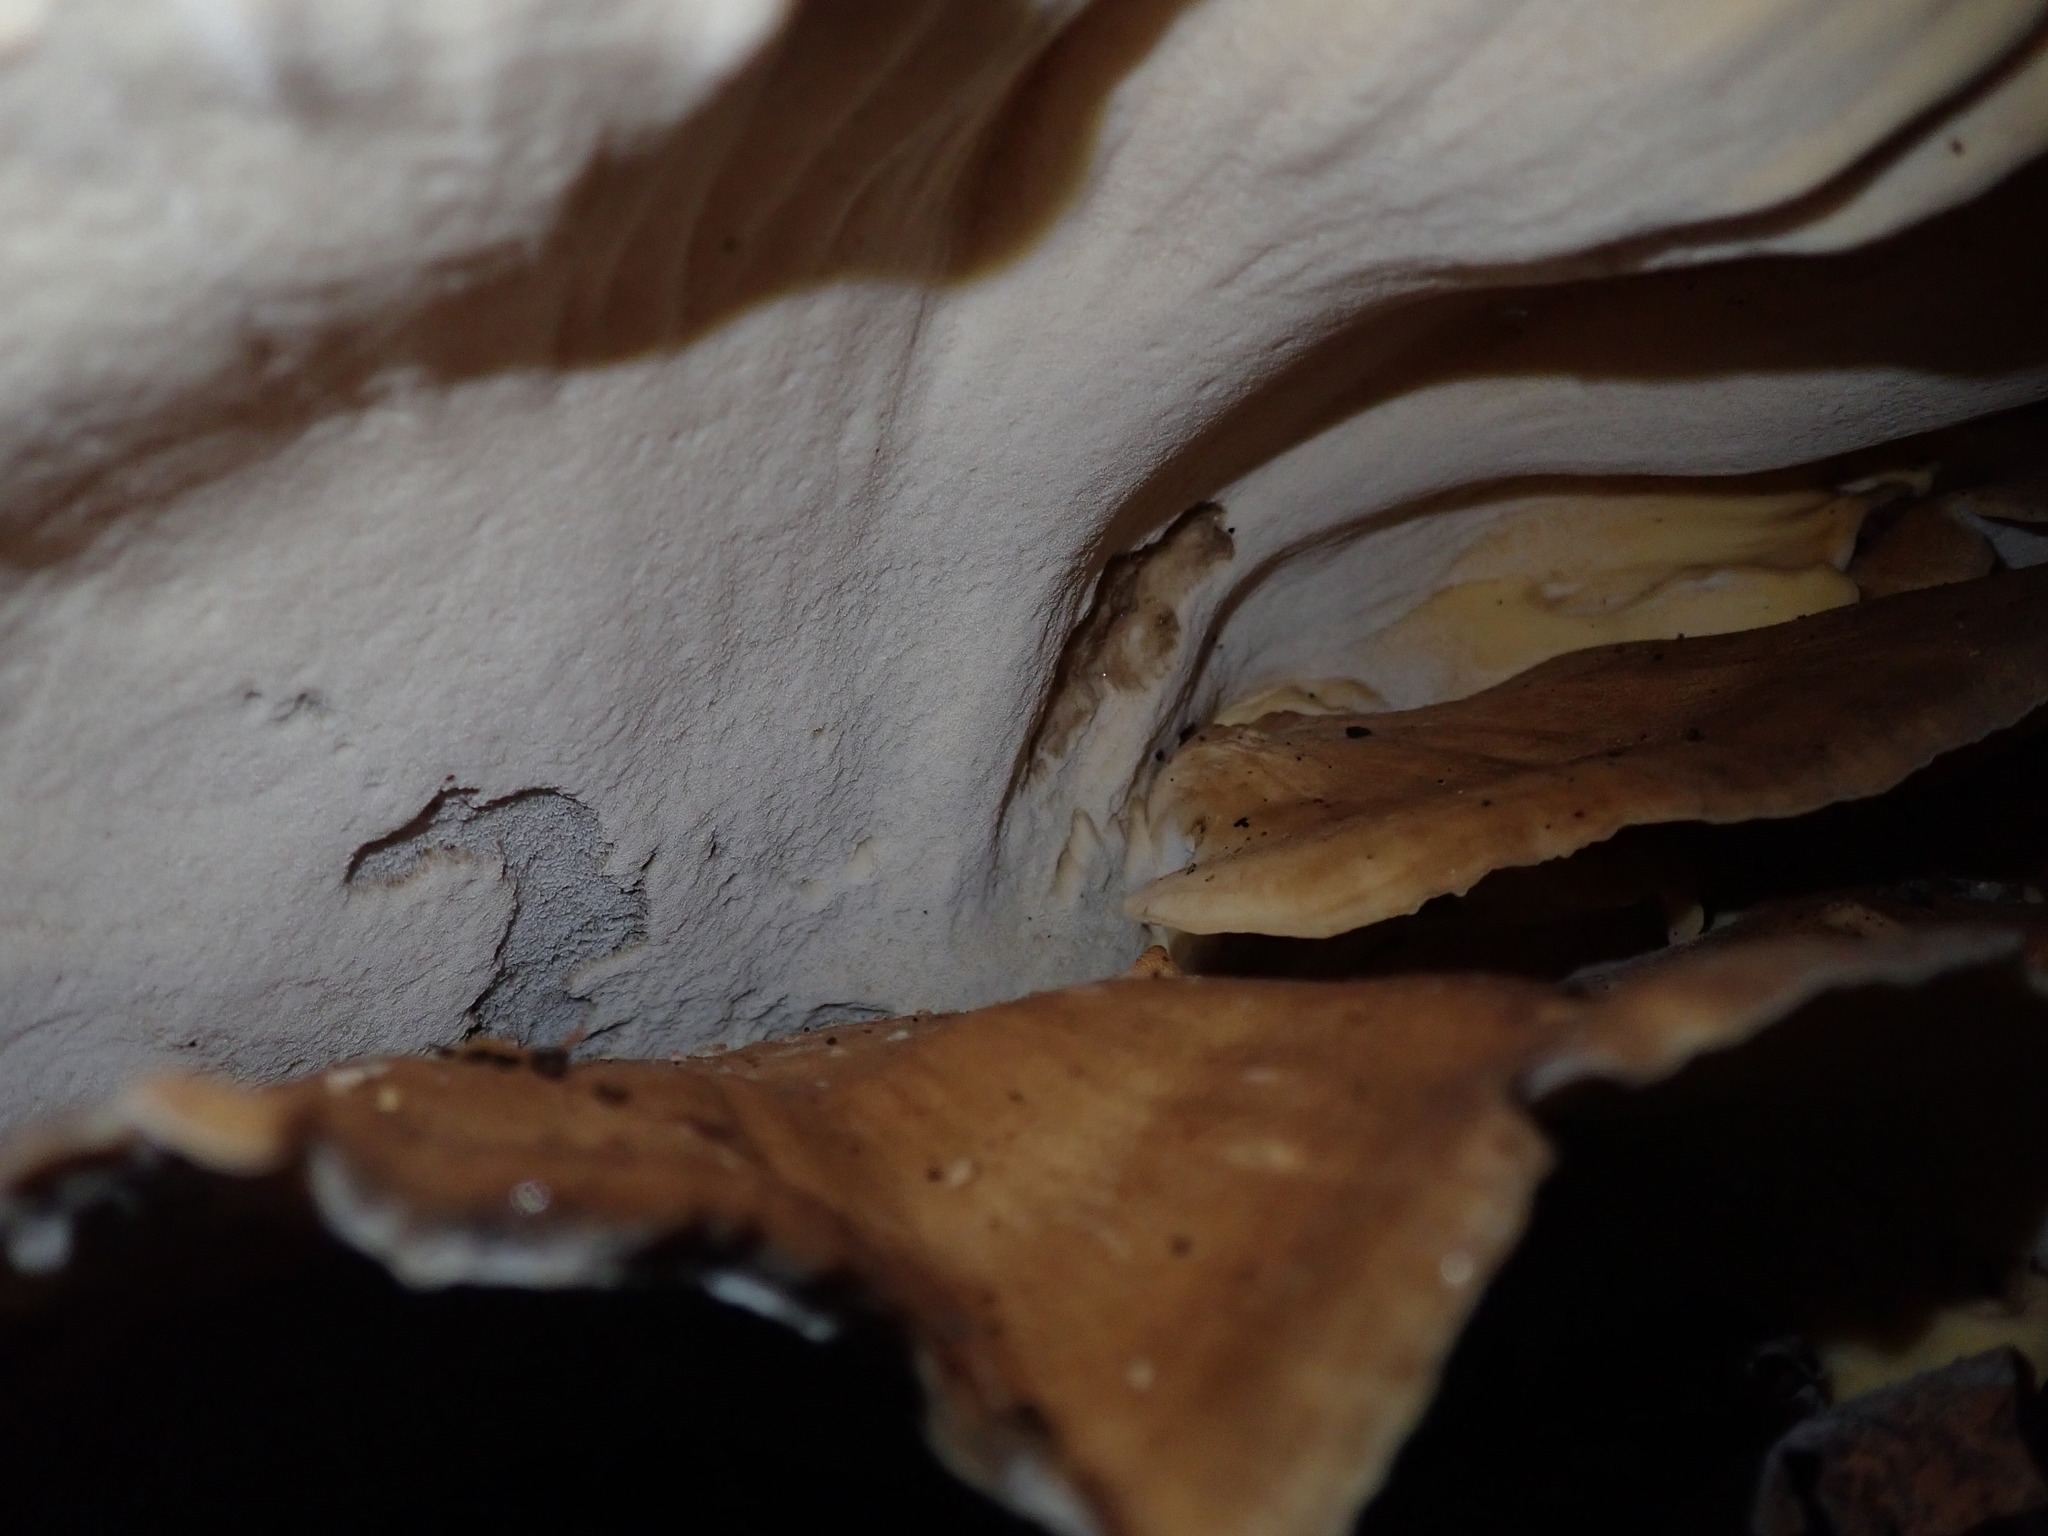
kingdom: Fungi
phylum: Basidiomycota
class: Agaricomycetes
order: Polyporales
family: Meripilaceae
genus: Meripilus
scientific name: Meripilus giganteus
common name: Giant polypore
